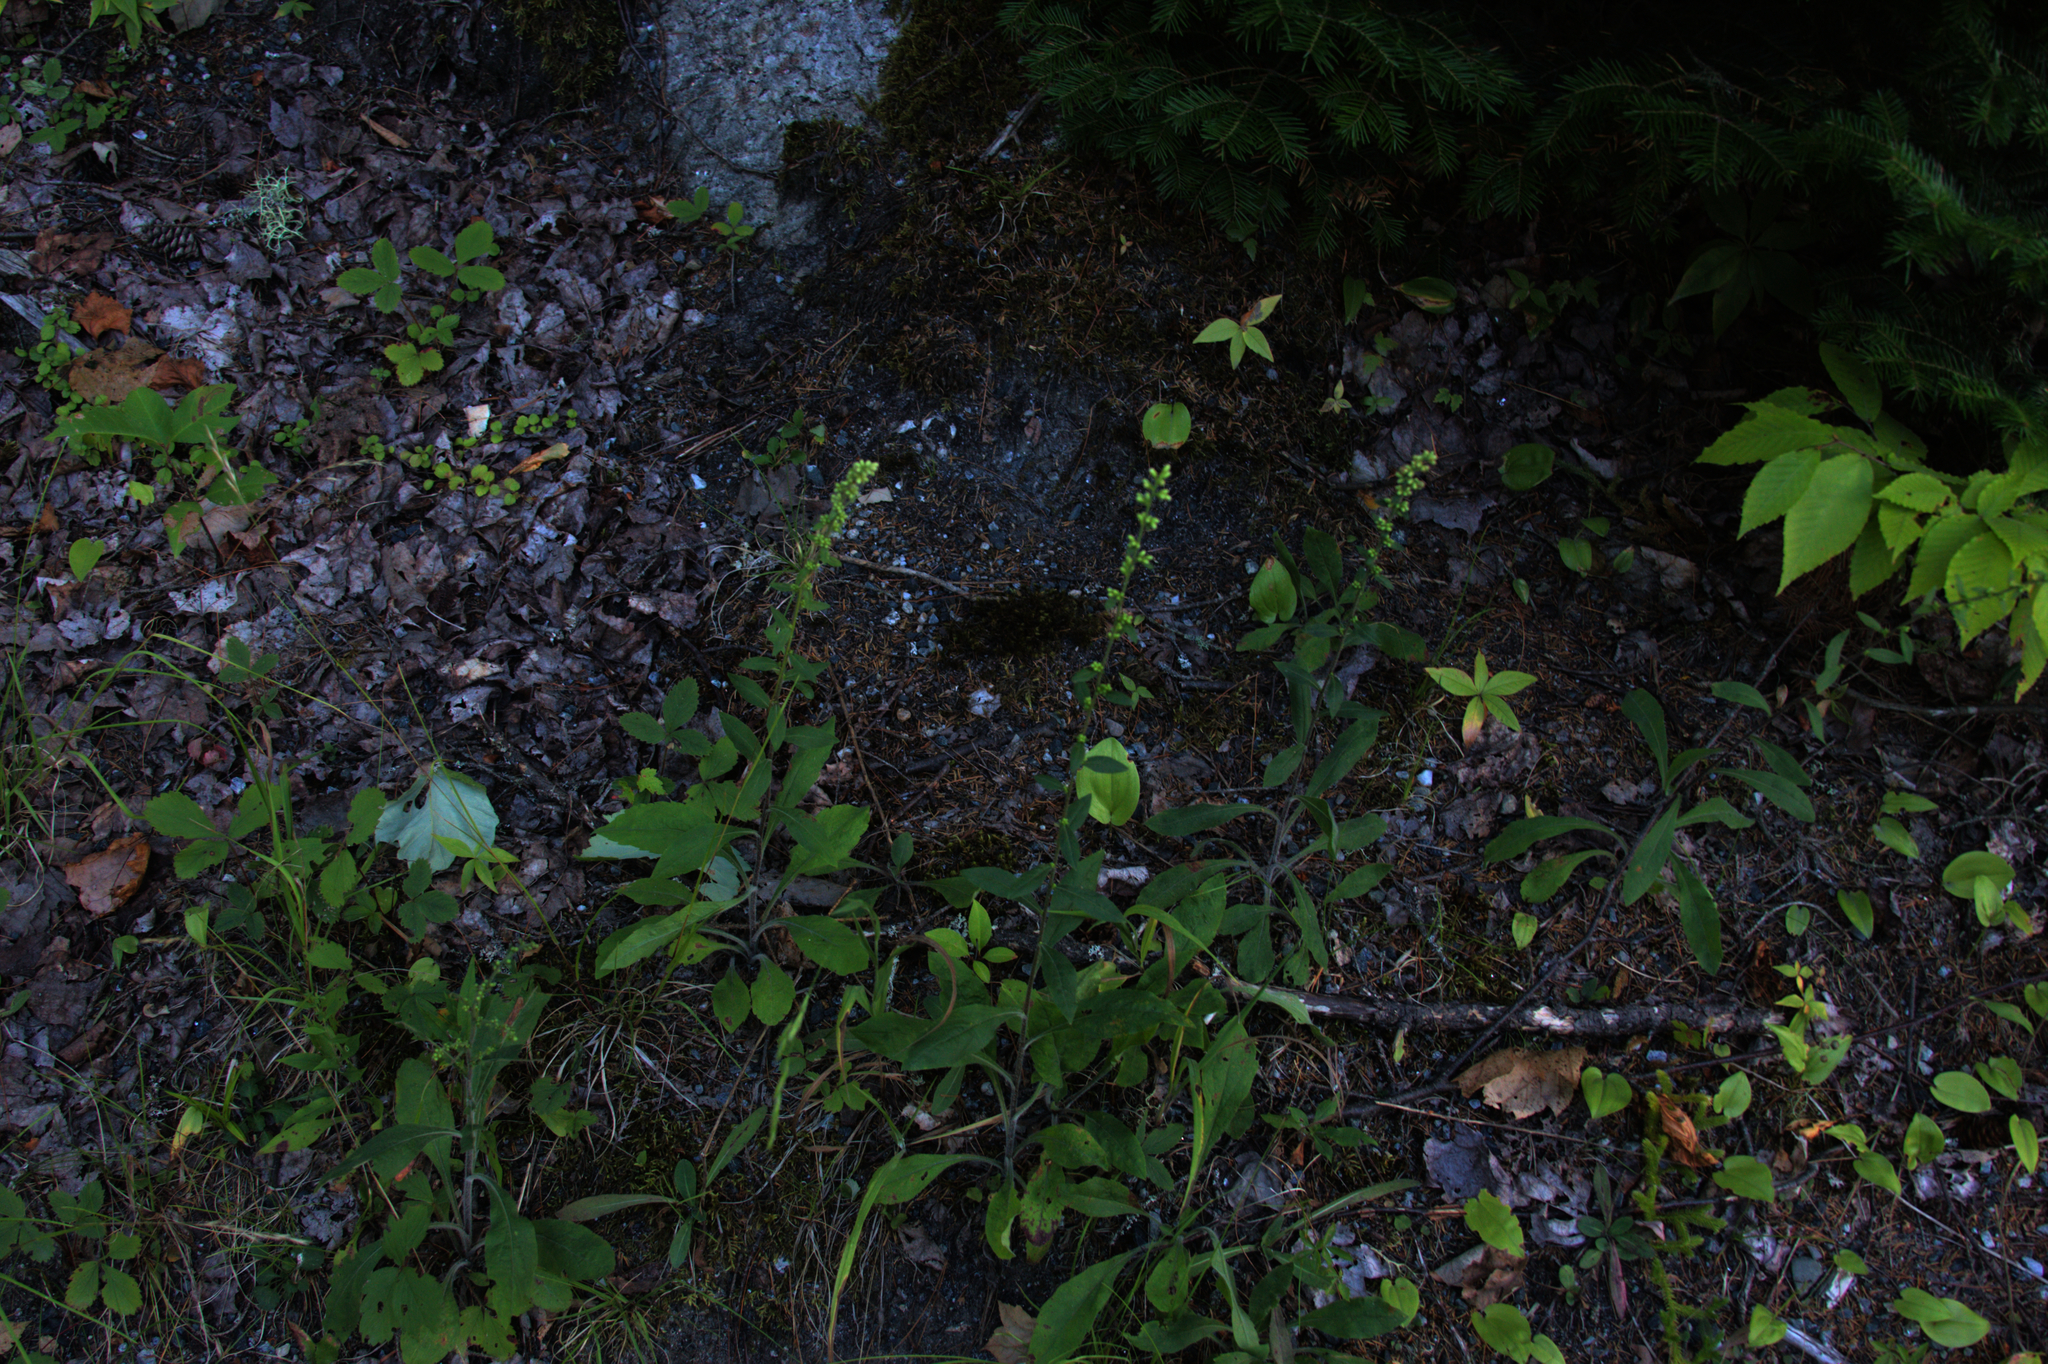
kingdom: Plantae
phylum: Tracheophyta
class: Magnoliopsida
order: Asterales
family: Asteraceae
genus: Solidago
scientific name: Solidago bicolor
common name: Silverrod
